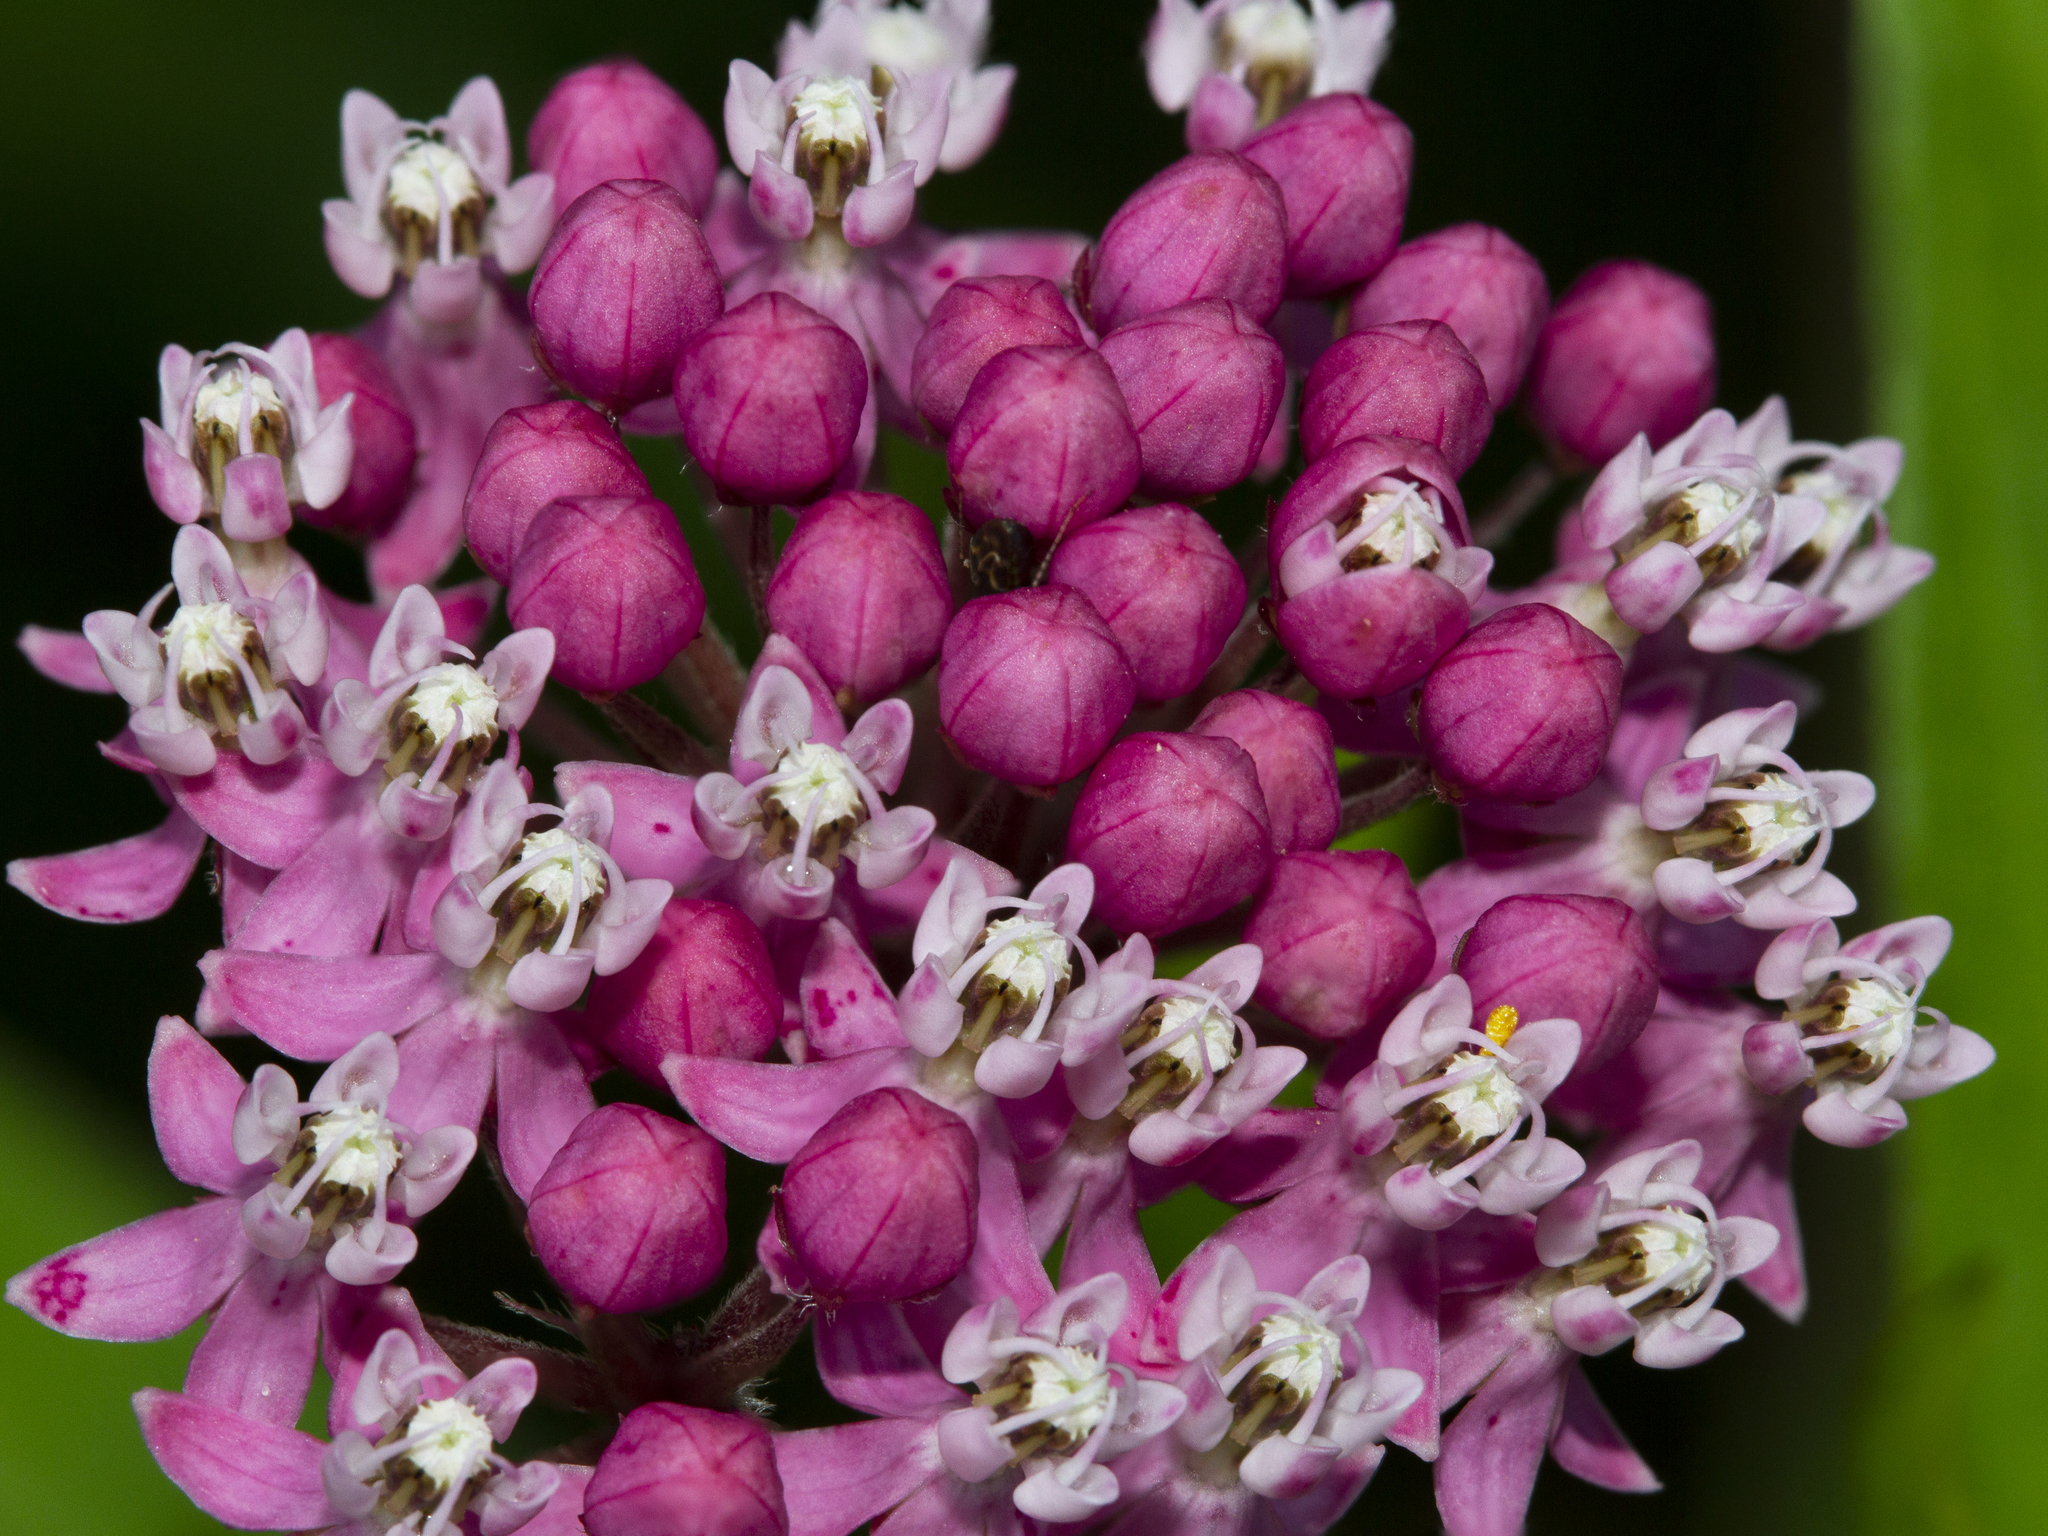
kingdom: Plantae
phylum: Tracheophyta
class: Magnoliopsida
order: Gentianales
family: Apocynaceae
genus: Asclepias
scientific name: Asclepias incarnata
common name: Swamp milkweed
